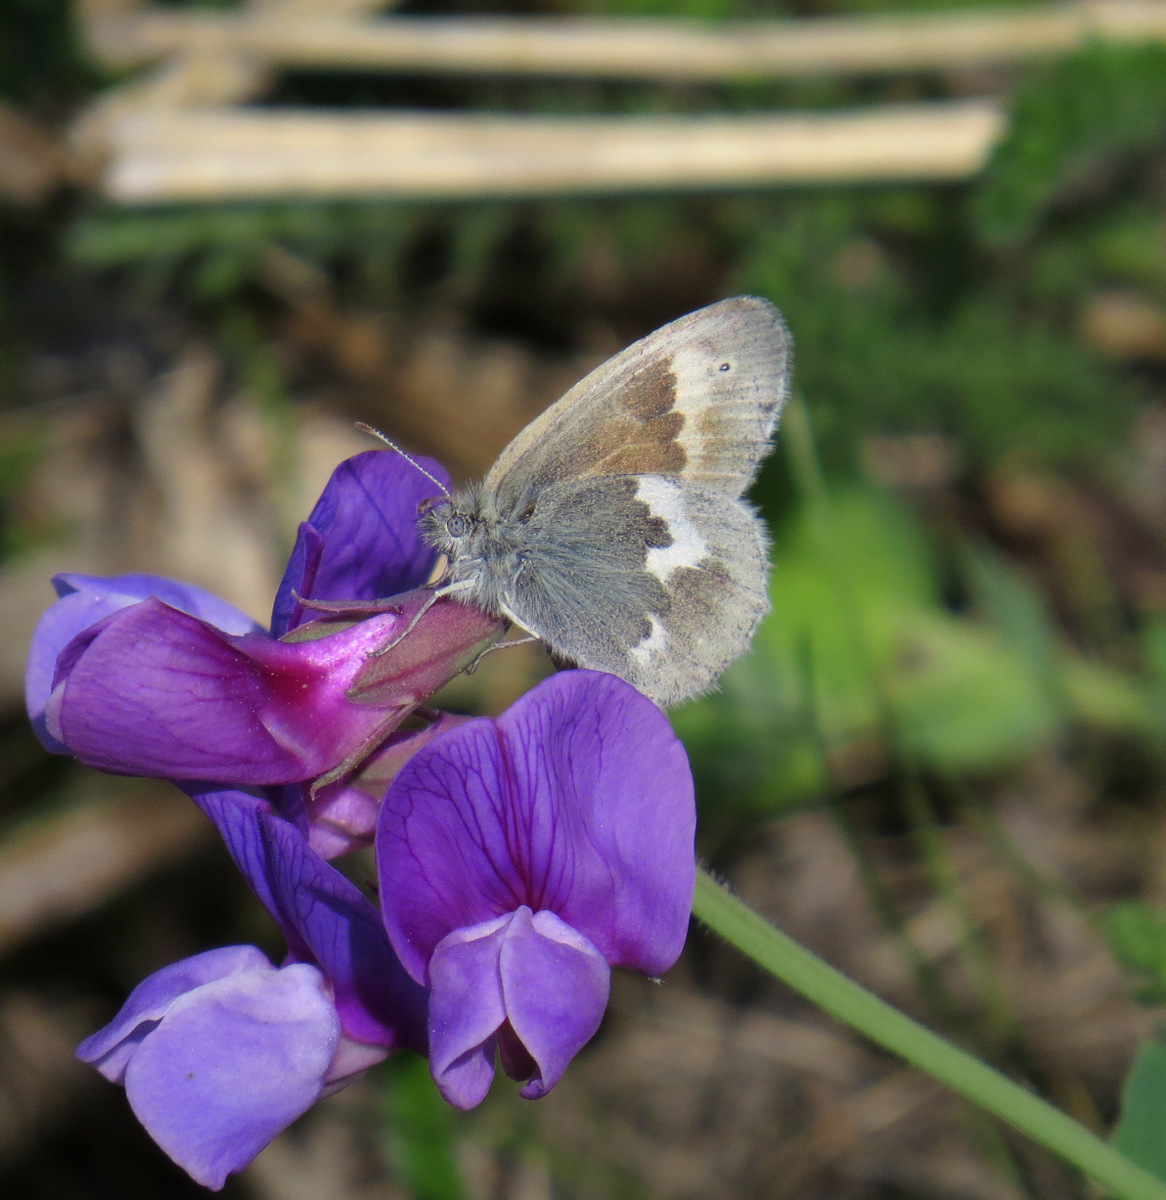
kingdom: Animalia
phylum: Arthropoda
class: Insecta
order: Lepidoptera
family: Nymphalidae
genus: Coenonympha
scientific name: Coenonympha tullia
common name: Large heath
